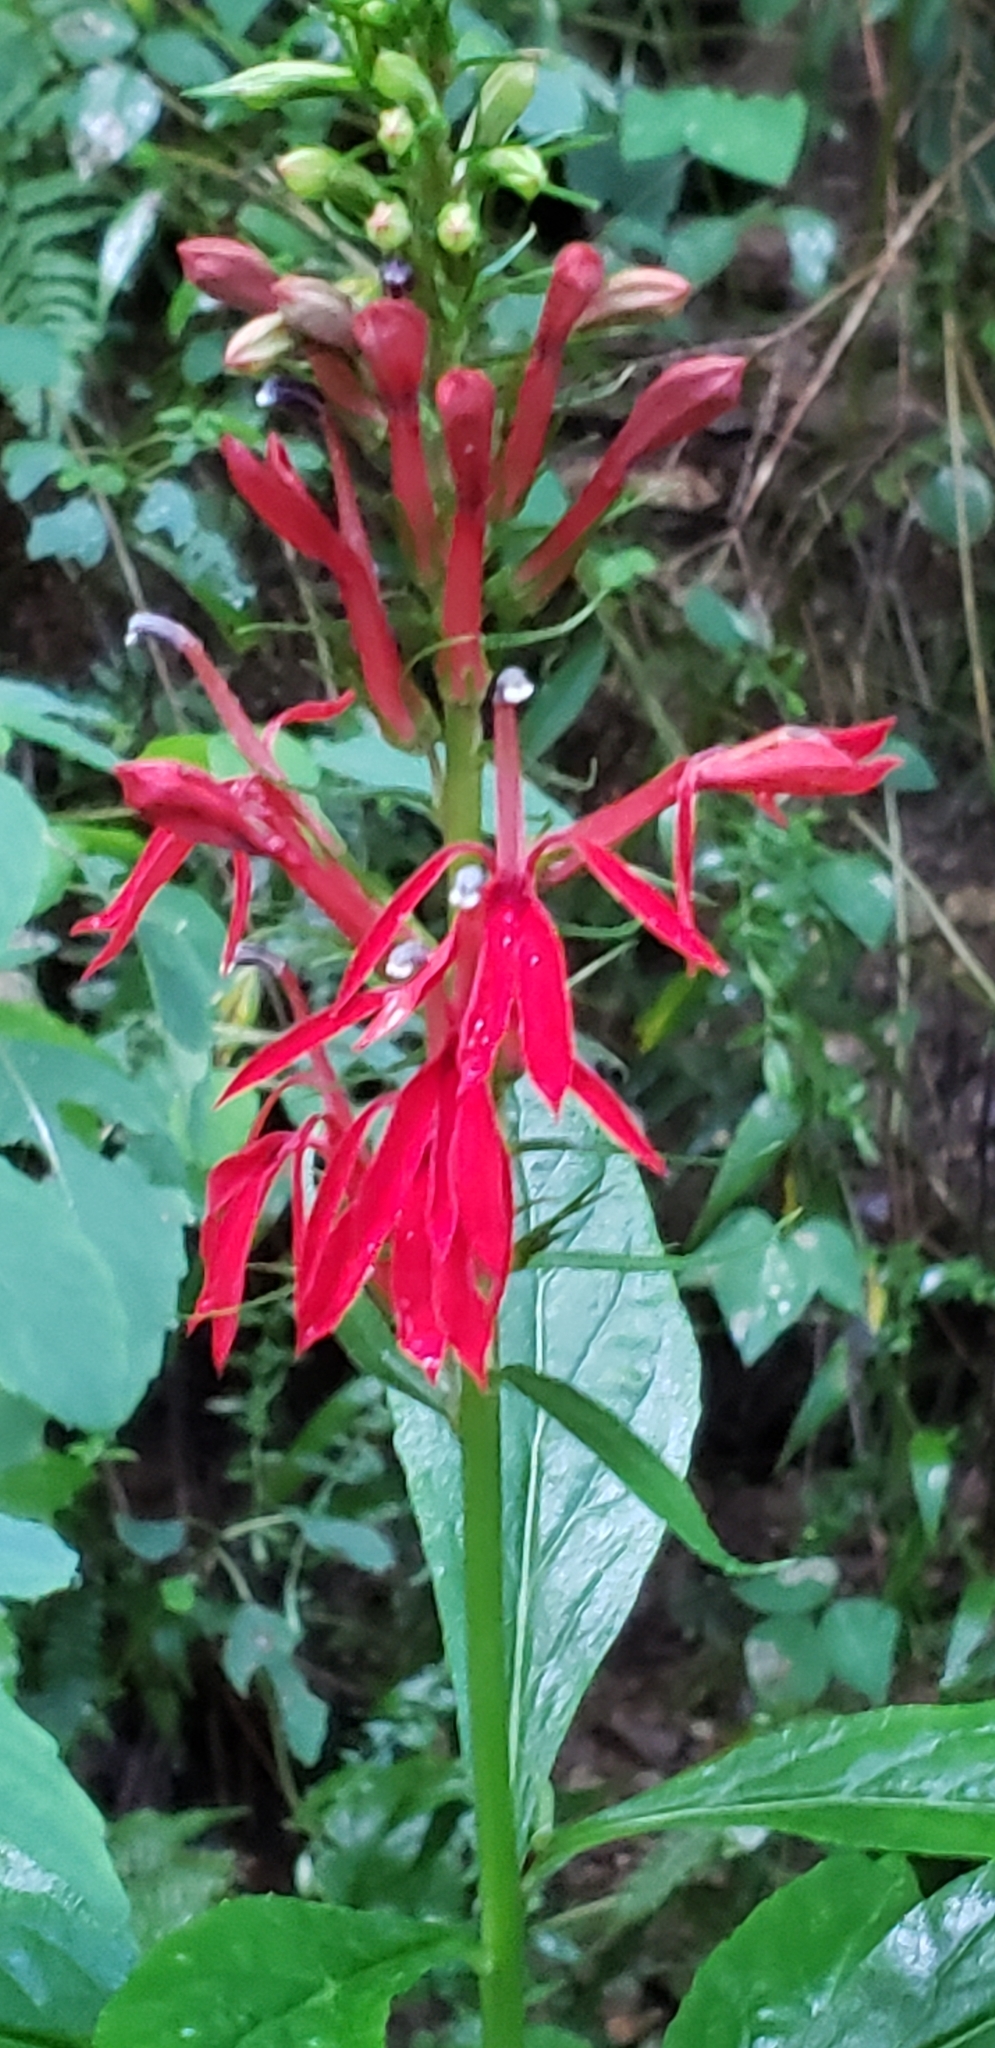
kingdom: Plantae
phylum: Tracheophyta
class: Magnoliopsida
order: Asterales
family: Campanulaceae
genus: Lobelia
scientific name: Lobelia cardinalis
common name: Cardinal flower
